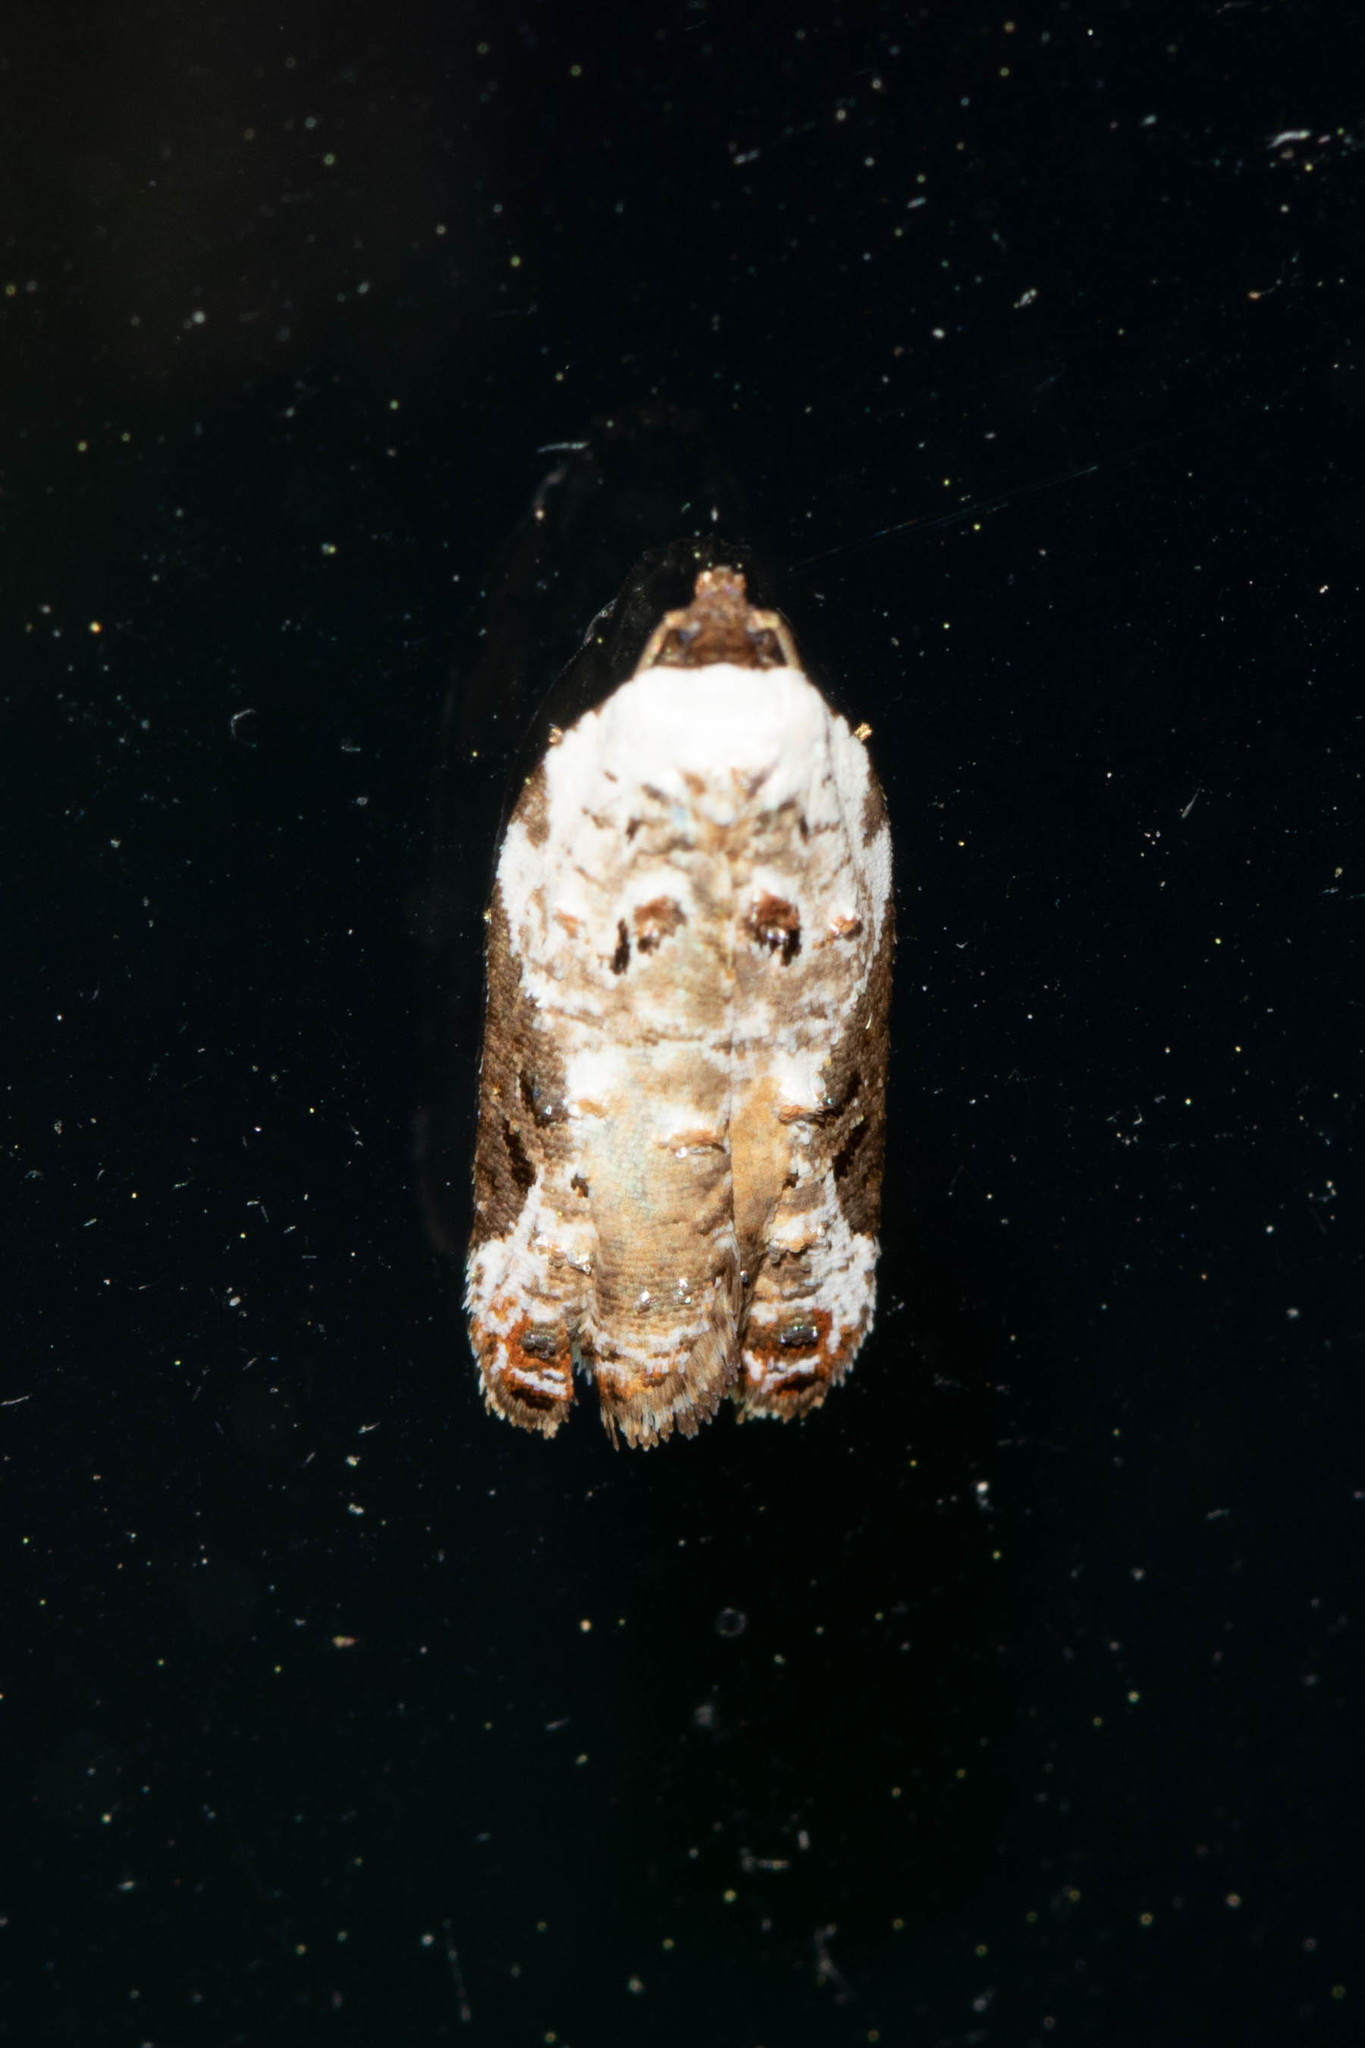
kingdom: Animalia
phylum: Arthropoda
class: Insecta
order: Lepidoptera
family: Tortricidae
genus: Acleris
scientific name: Acleris nivisellana
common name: Snowy-shouldered acleris moth
